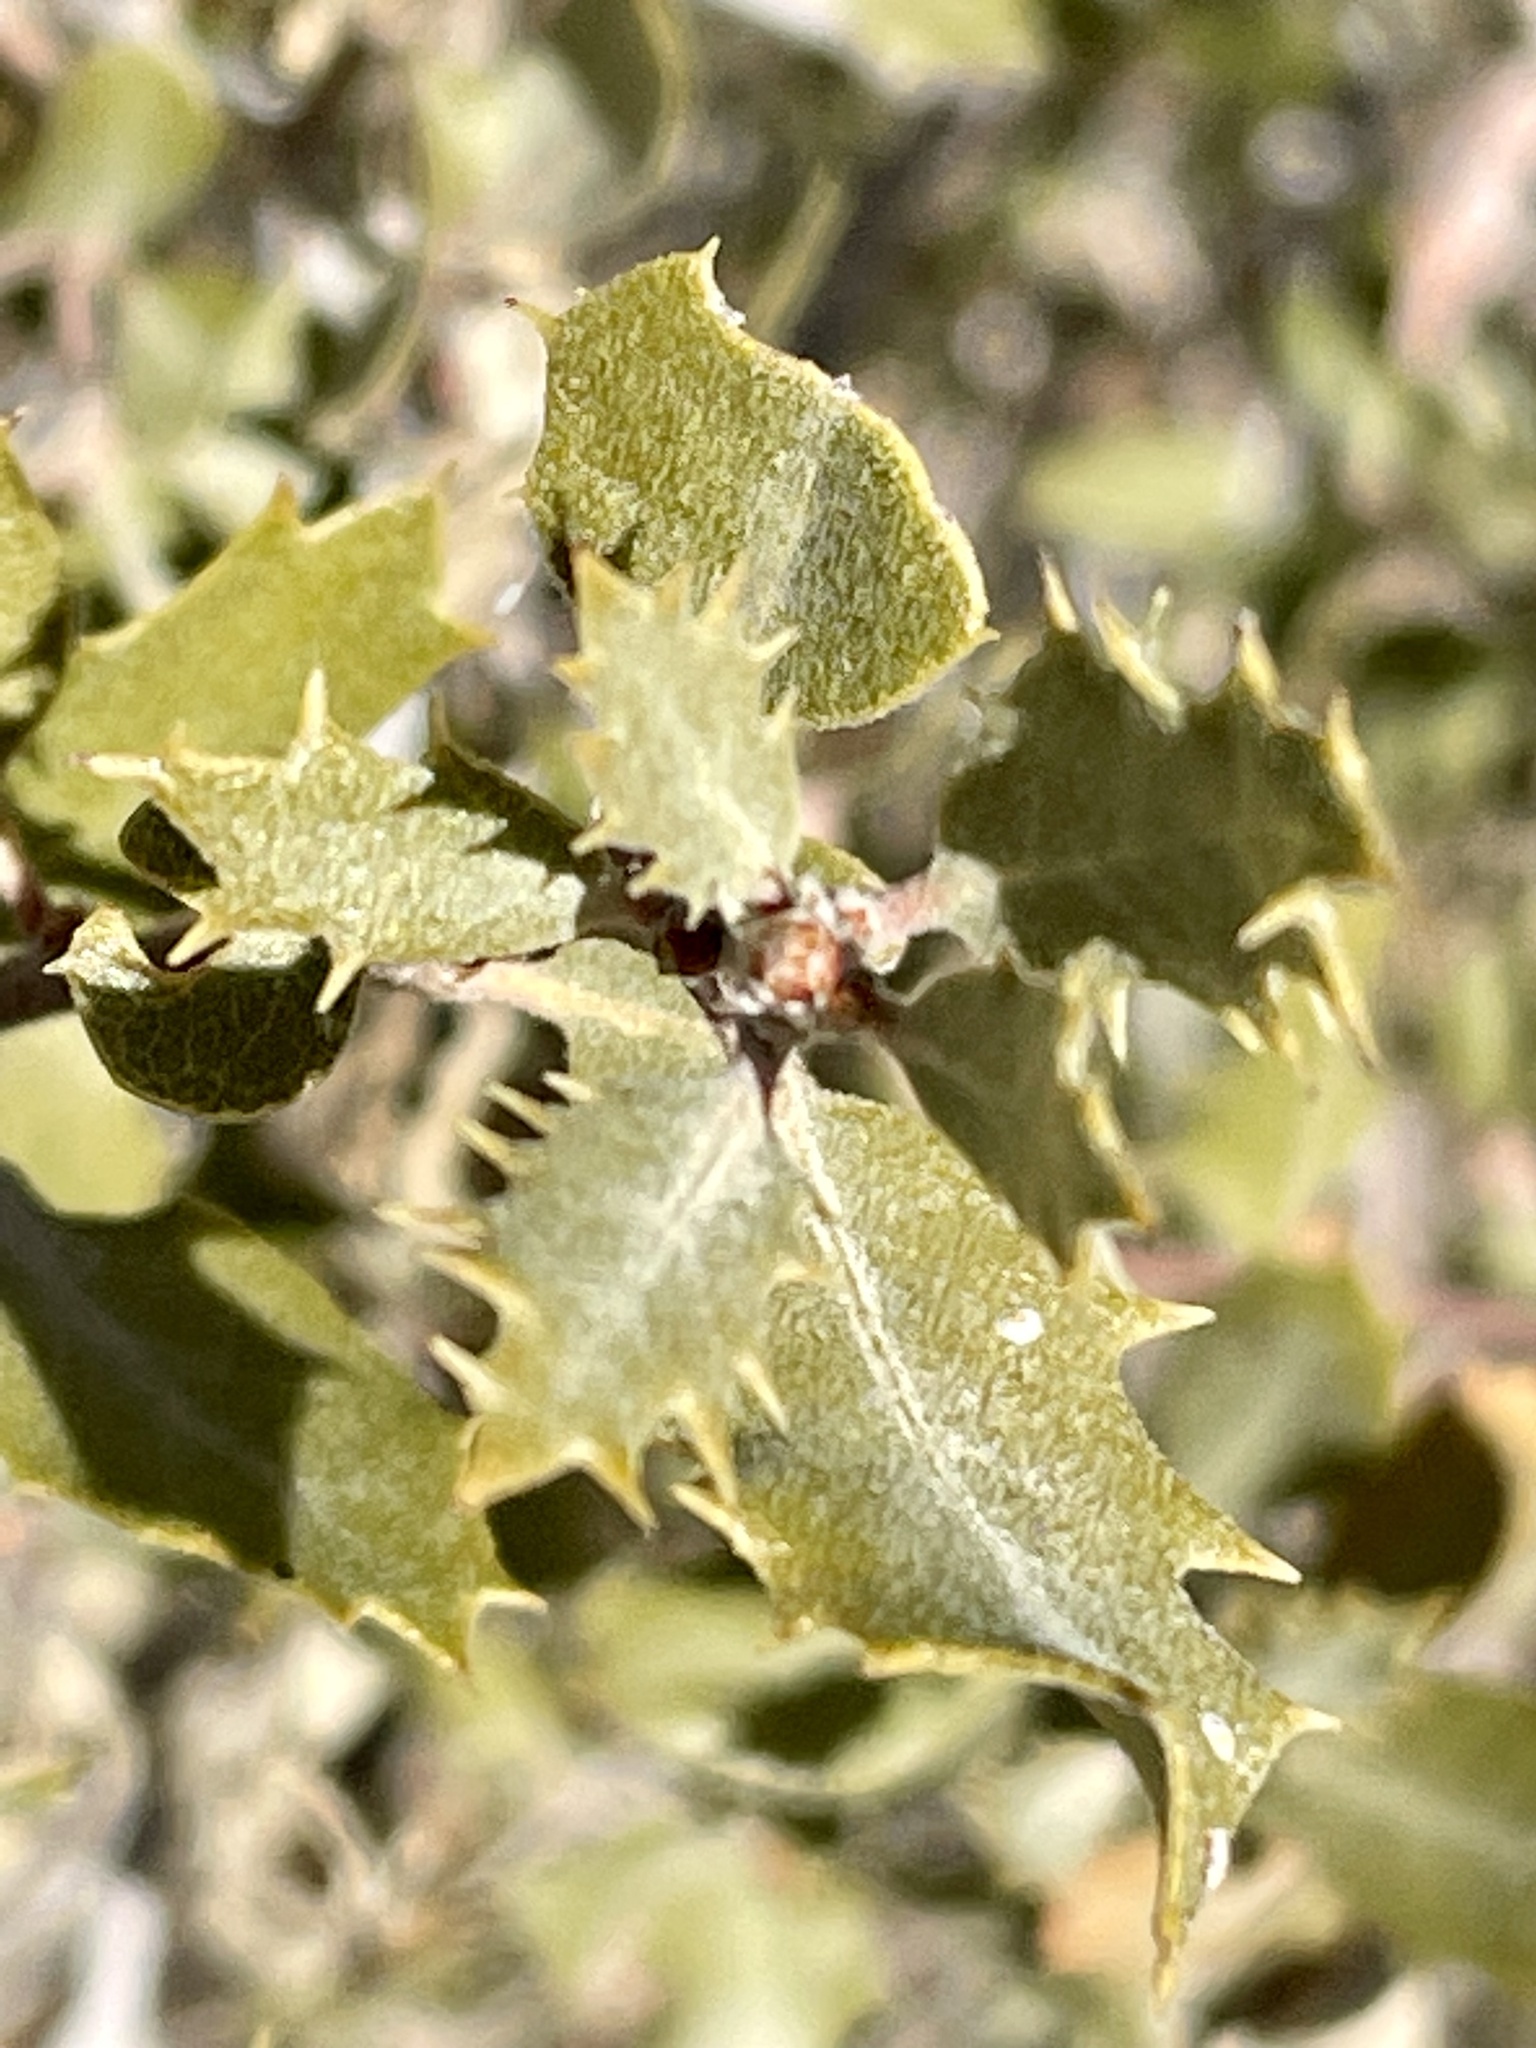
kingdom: Plantae
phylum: Tracheophyta
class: Magnoliopsida
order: Fagales
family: Fagaceae
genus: Quercus
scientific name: Quercus cornelius-mulleri
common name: Muller oak
